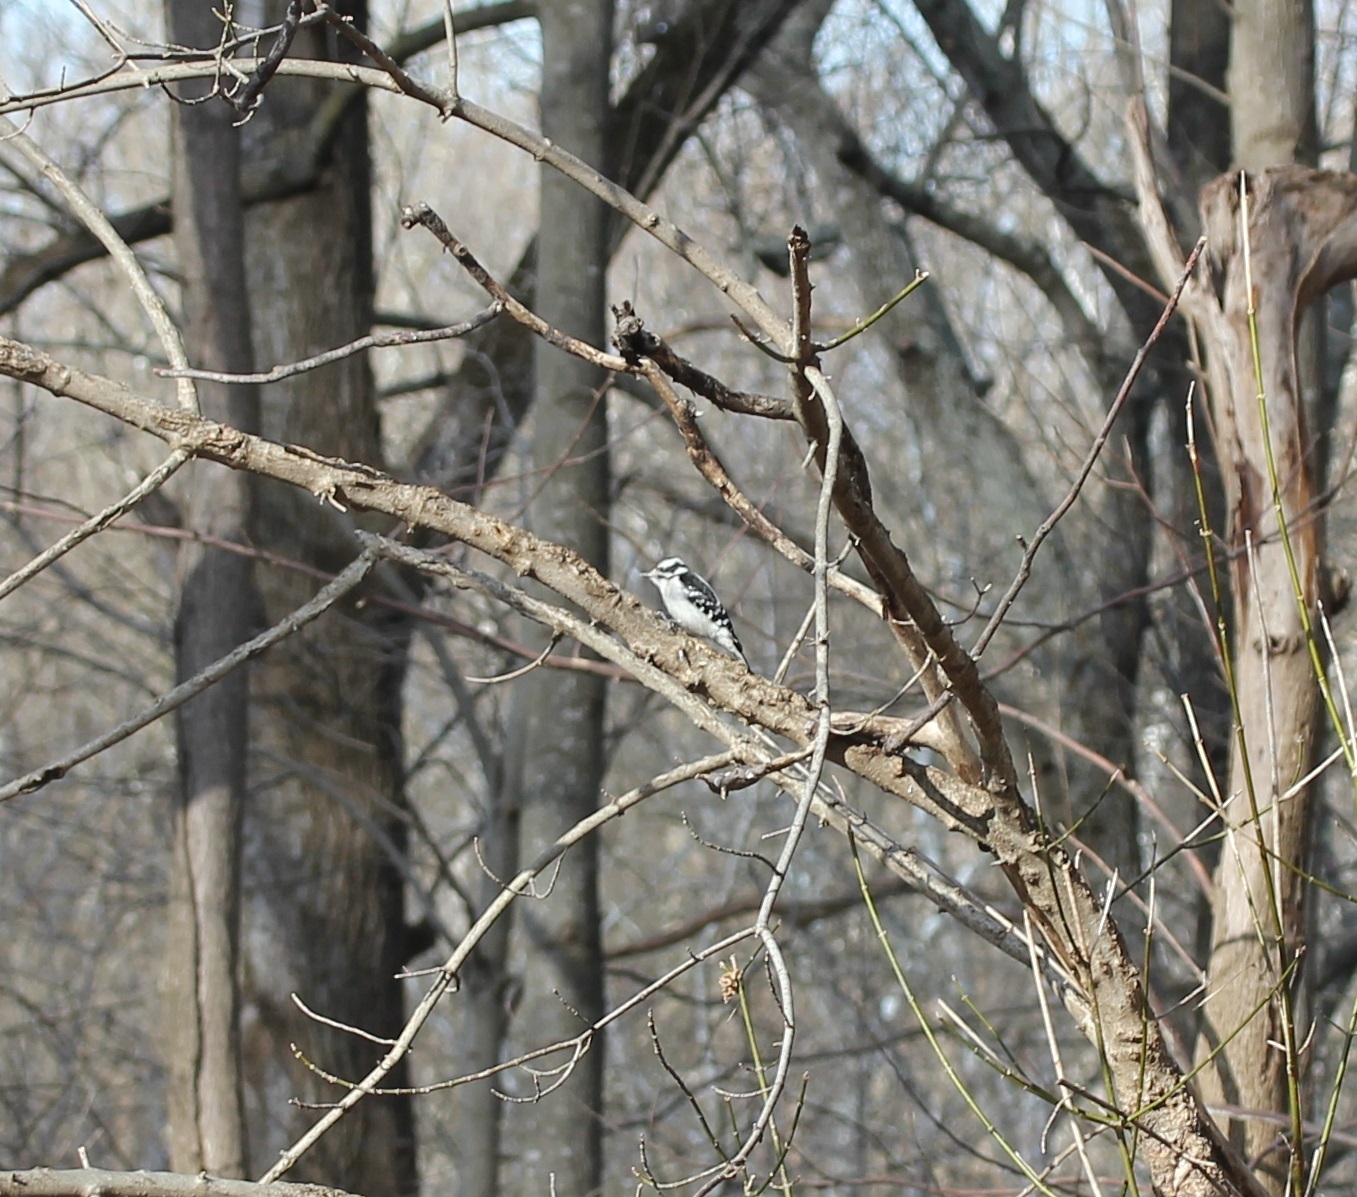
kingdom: Animalia
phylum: Chordata
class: Aves
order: Piciformes
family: Picidae
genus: Dryobates
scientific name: Dryobates pubescens
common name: Downy woodpecker
